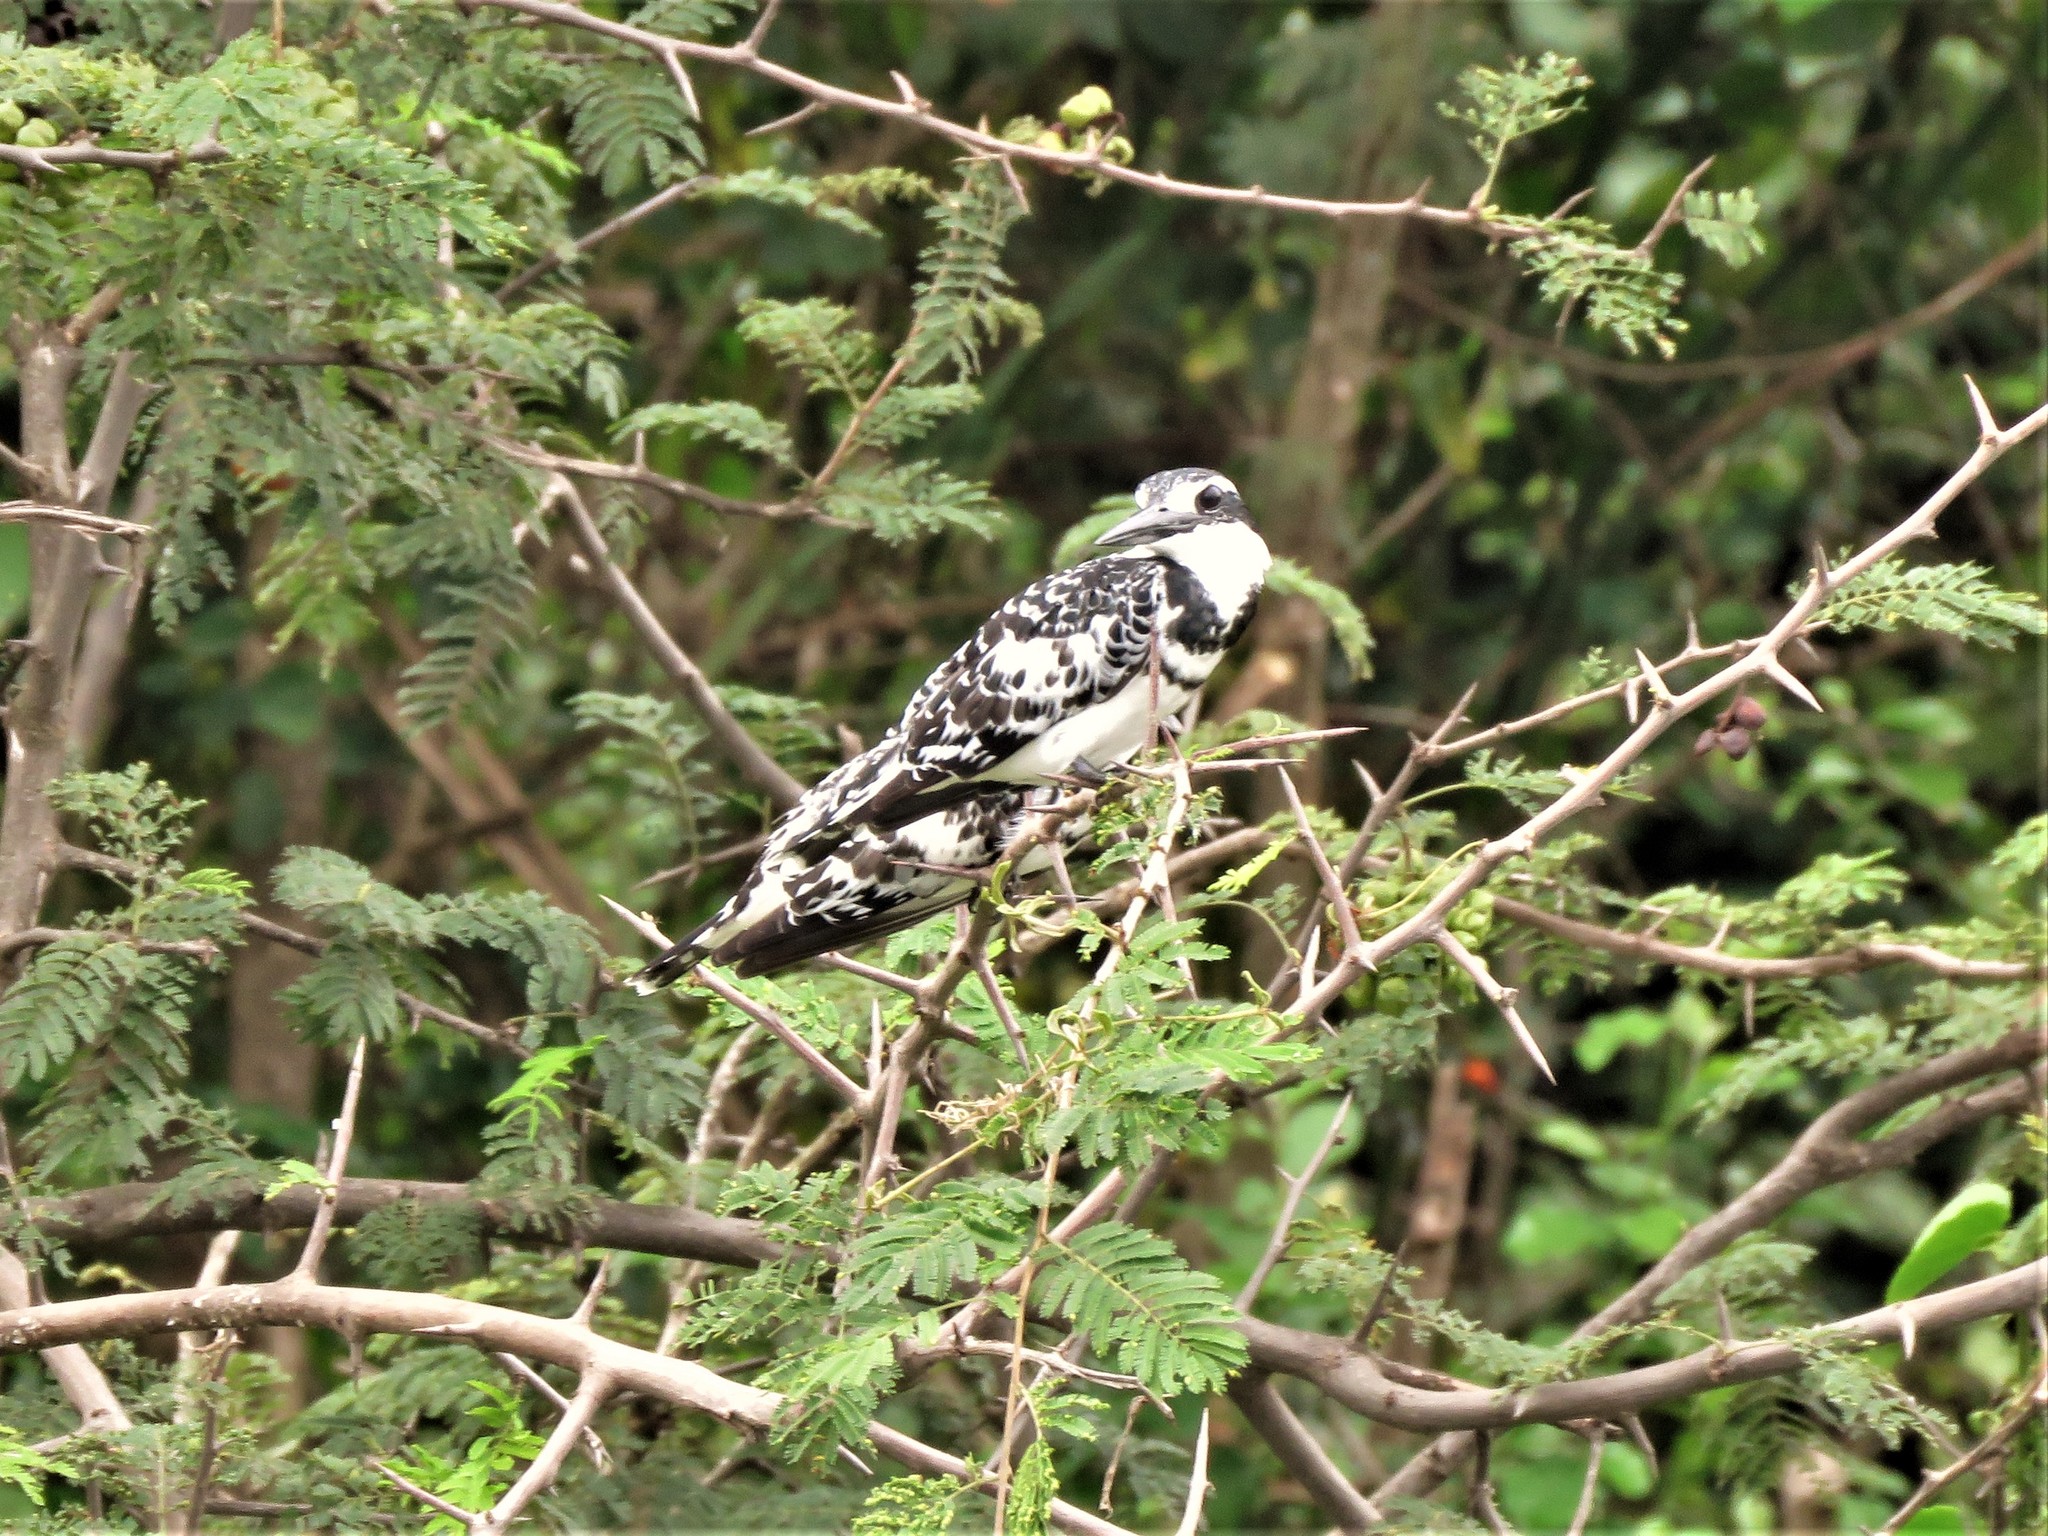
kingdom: Animalia
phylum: Chordata
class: Aves
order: Coraciiformes
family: Alcedinidae
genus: Ceryle
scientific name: Ceryle rudis
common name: Pied kingfisher
